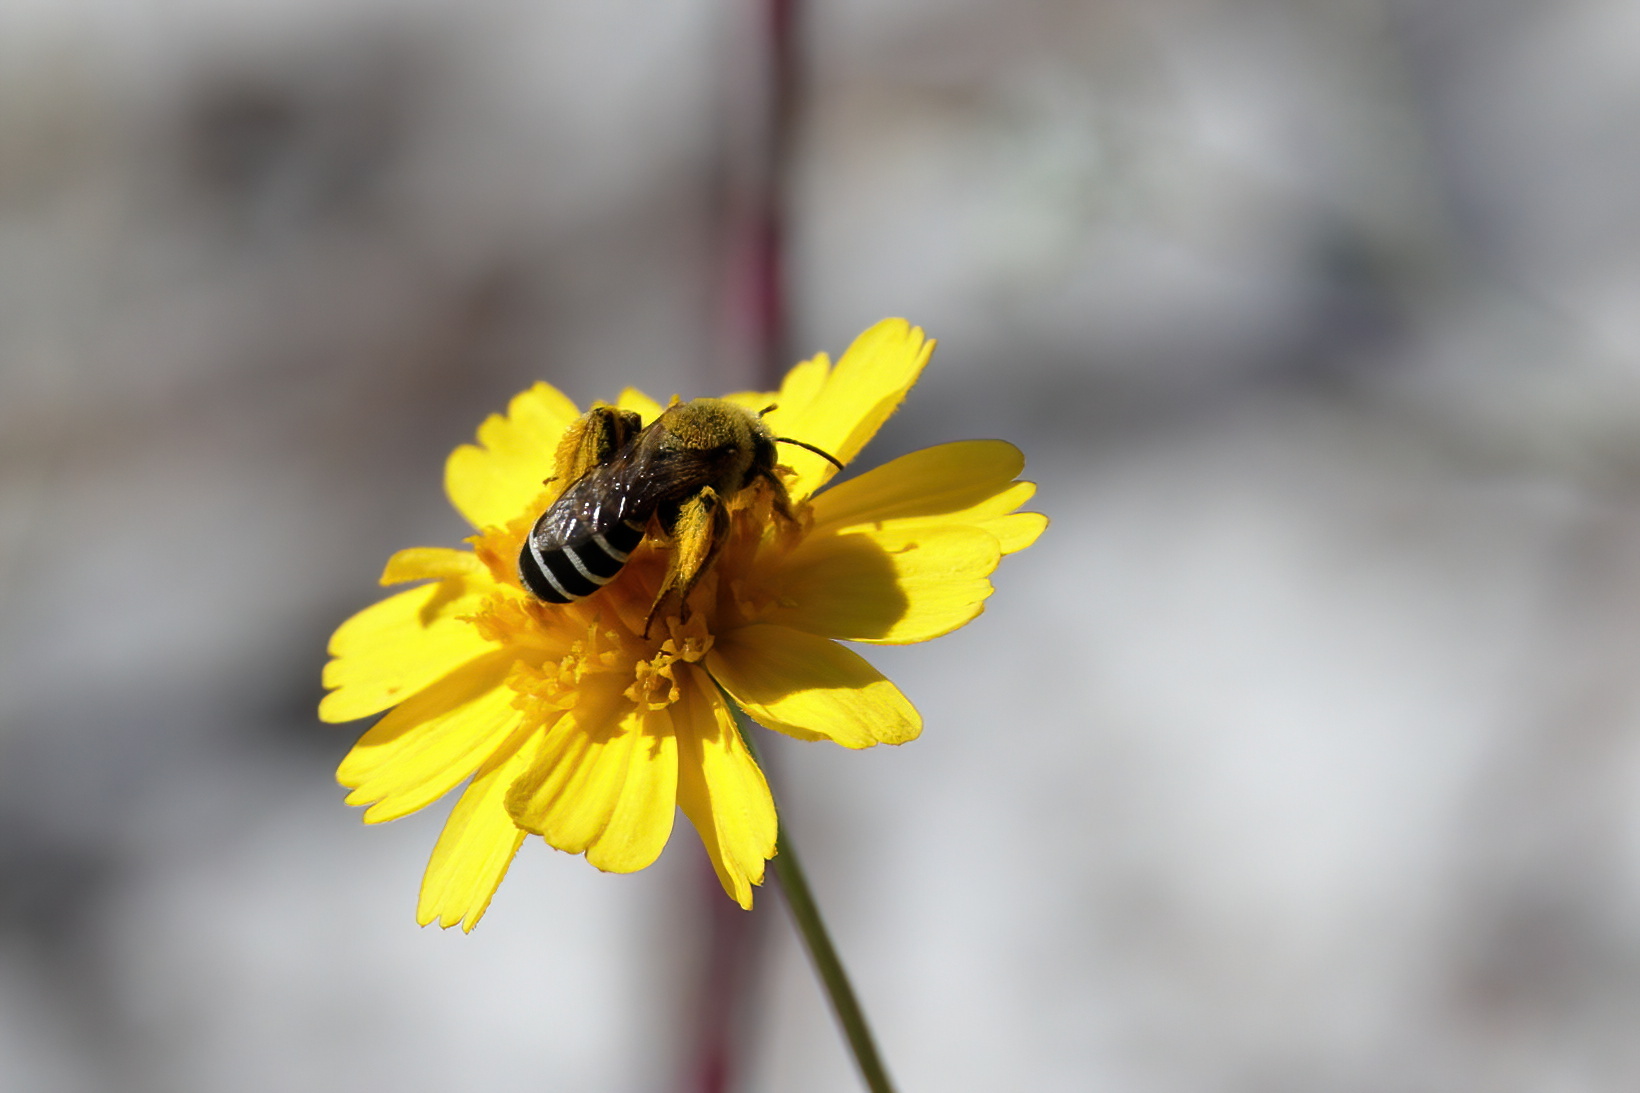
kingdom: Animalia
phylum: Arthropoda
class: Insecta
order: Hymenoptera
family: Melittidae
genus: Hesperapis
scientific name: Hesperapis oraria
